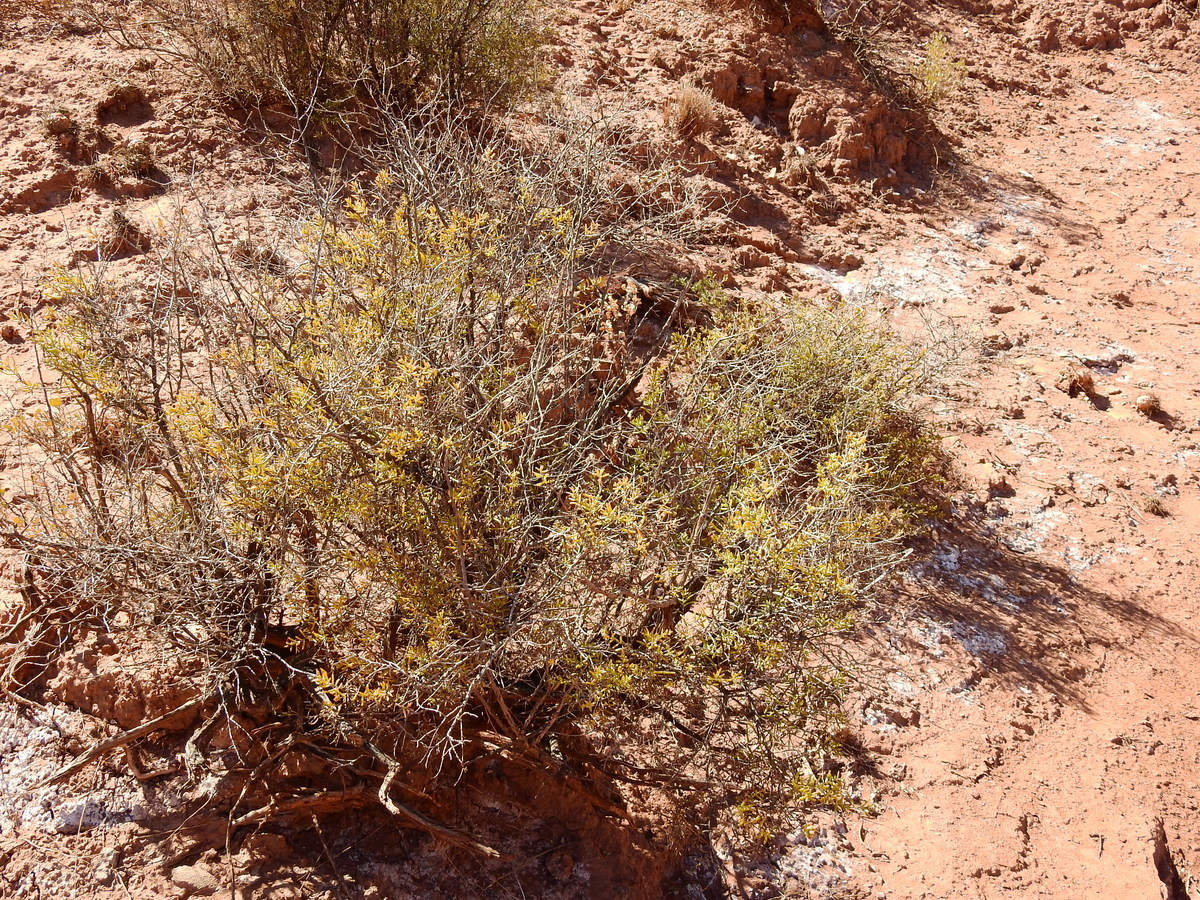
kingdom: Plantae
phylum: Tracheophyta
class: Magnoliopsida
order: Caryophyllales
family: Amaranthaceae
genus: Suaeda
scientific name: Suaeda divaricata
